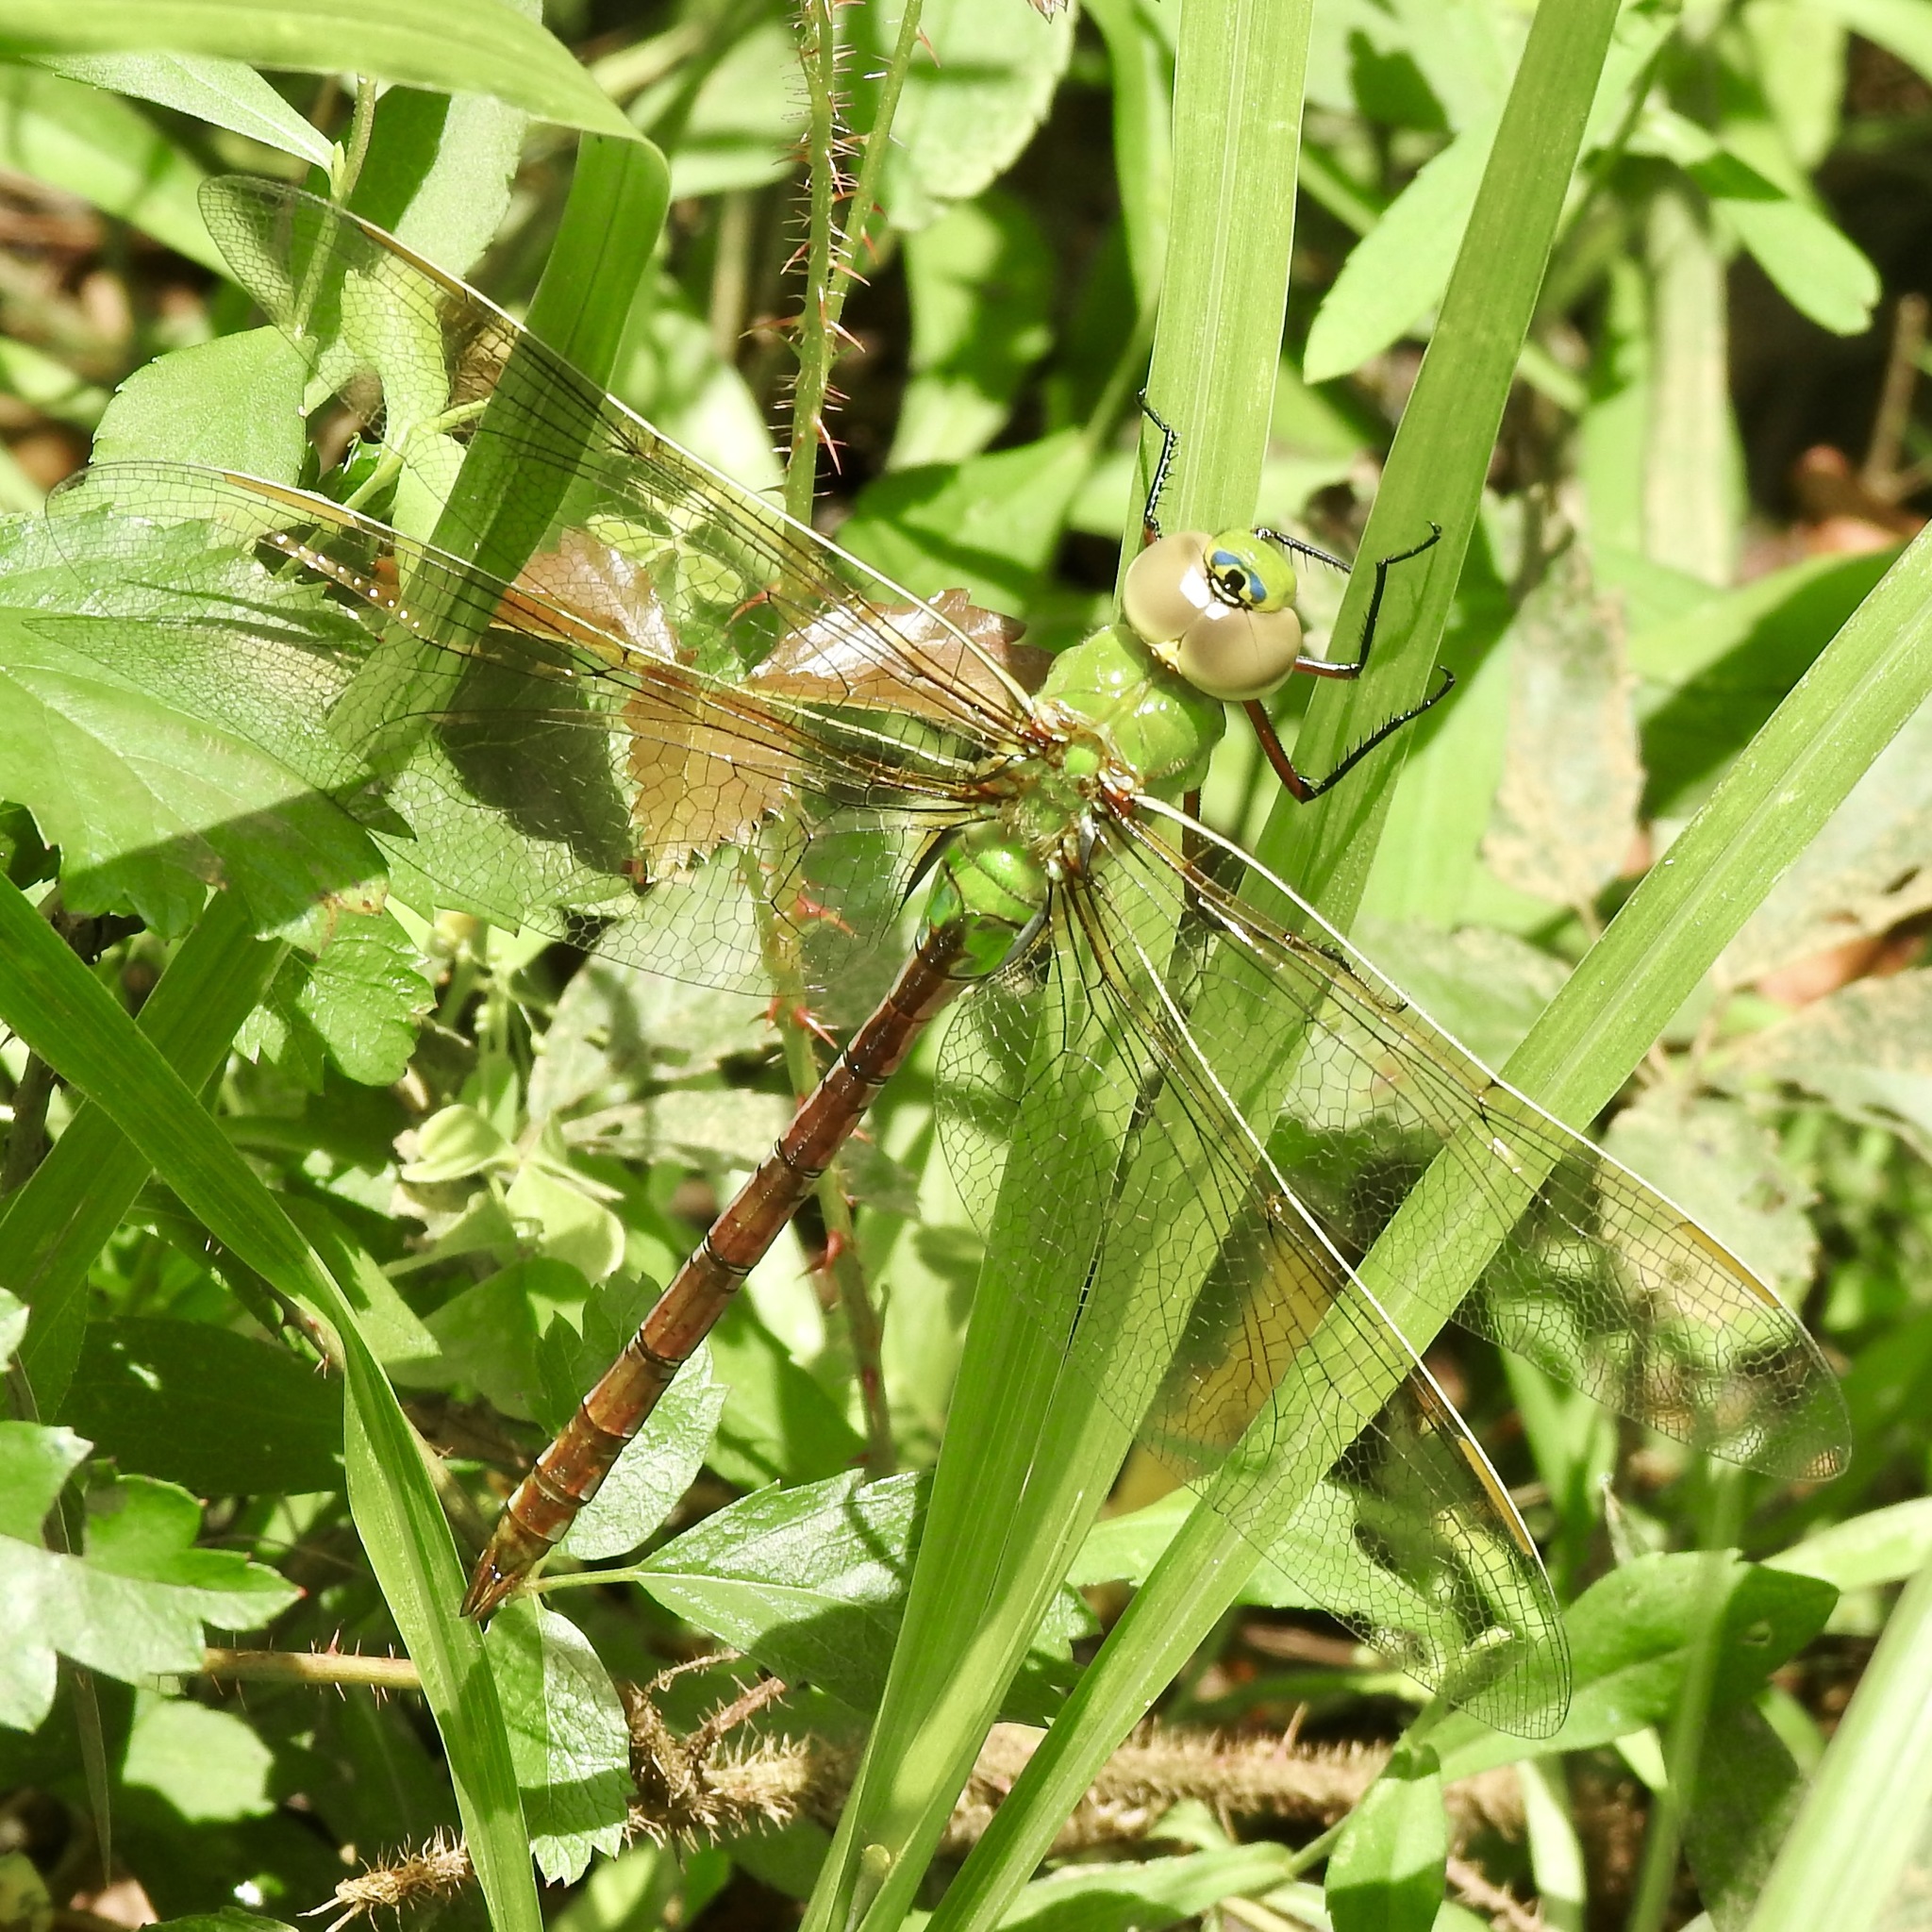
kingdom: Animalia
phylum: Arthropoda
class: Insecta
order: Odonata
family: Aeshnidae
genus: Anax
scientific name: Anax junius
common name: Common green darner
